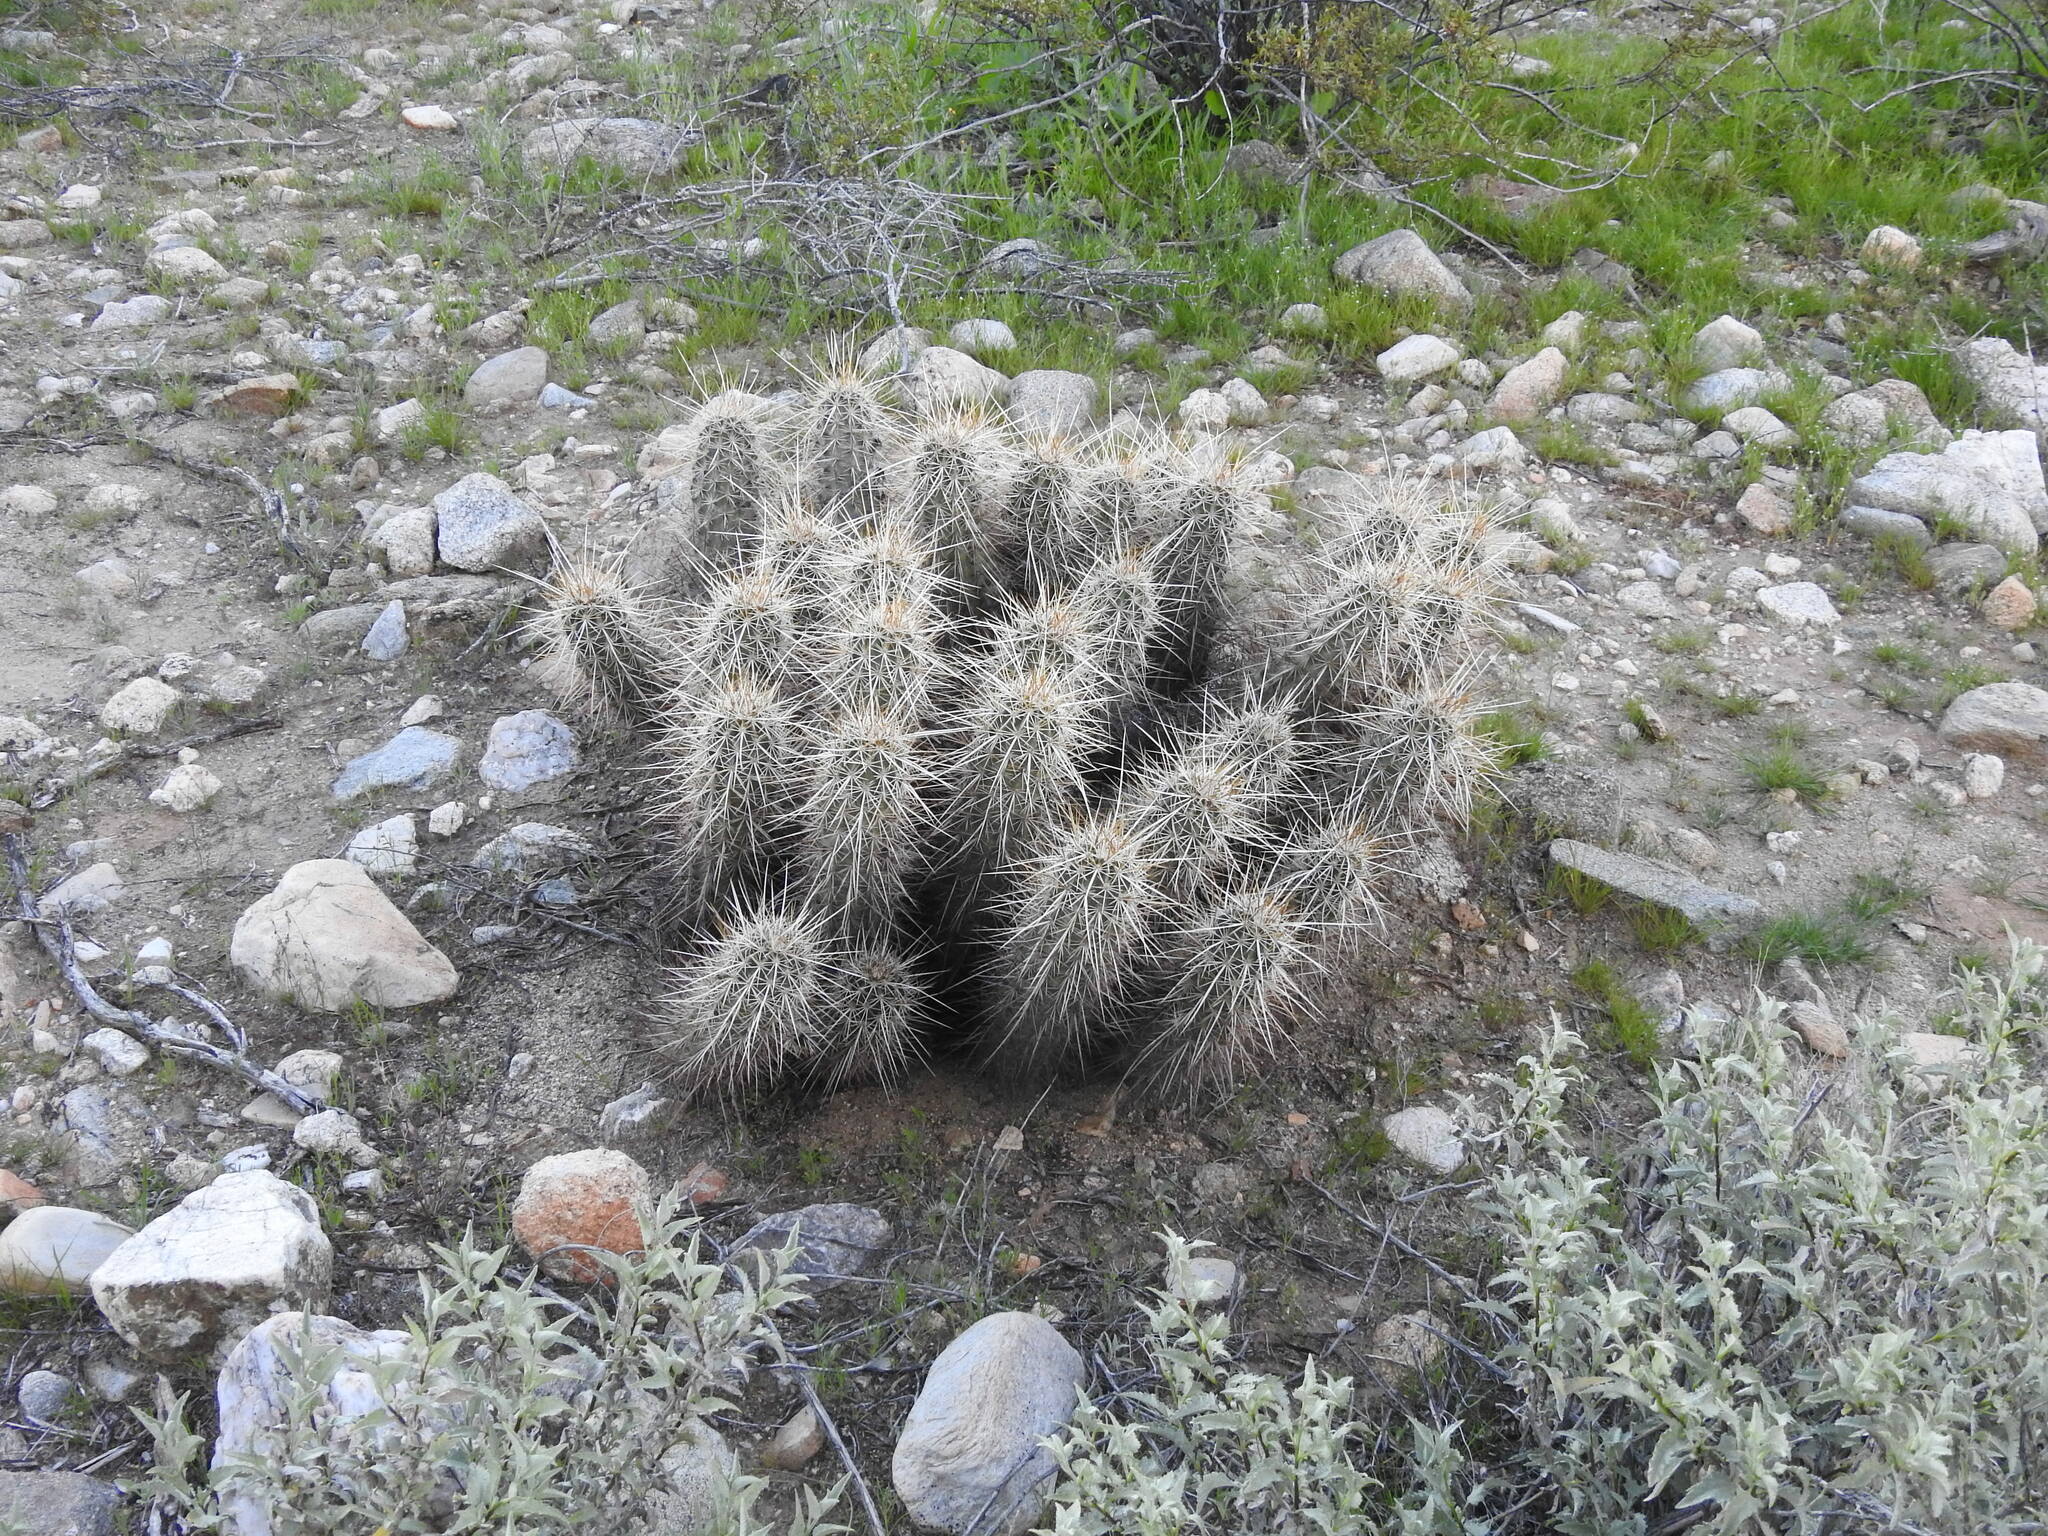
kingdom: Plantae
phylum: Tracheophyta
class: Magnoliopsida
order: Caryophyllales
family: Cactaceae
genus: Echinocereus
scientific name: Echinocereus engelmannii
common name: Engelmann's hedgehog cactus
